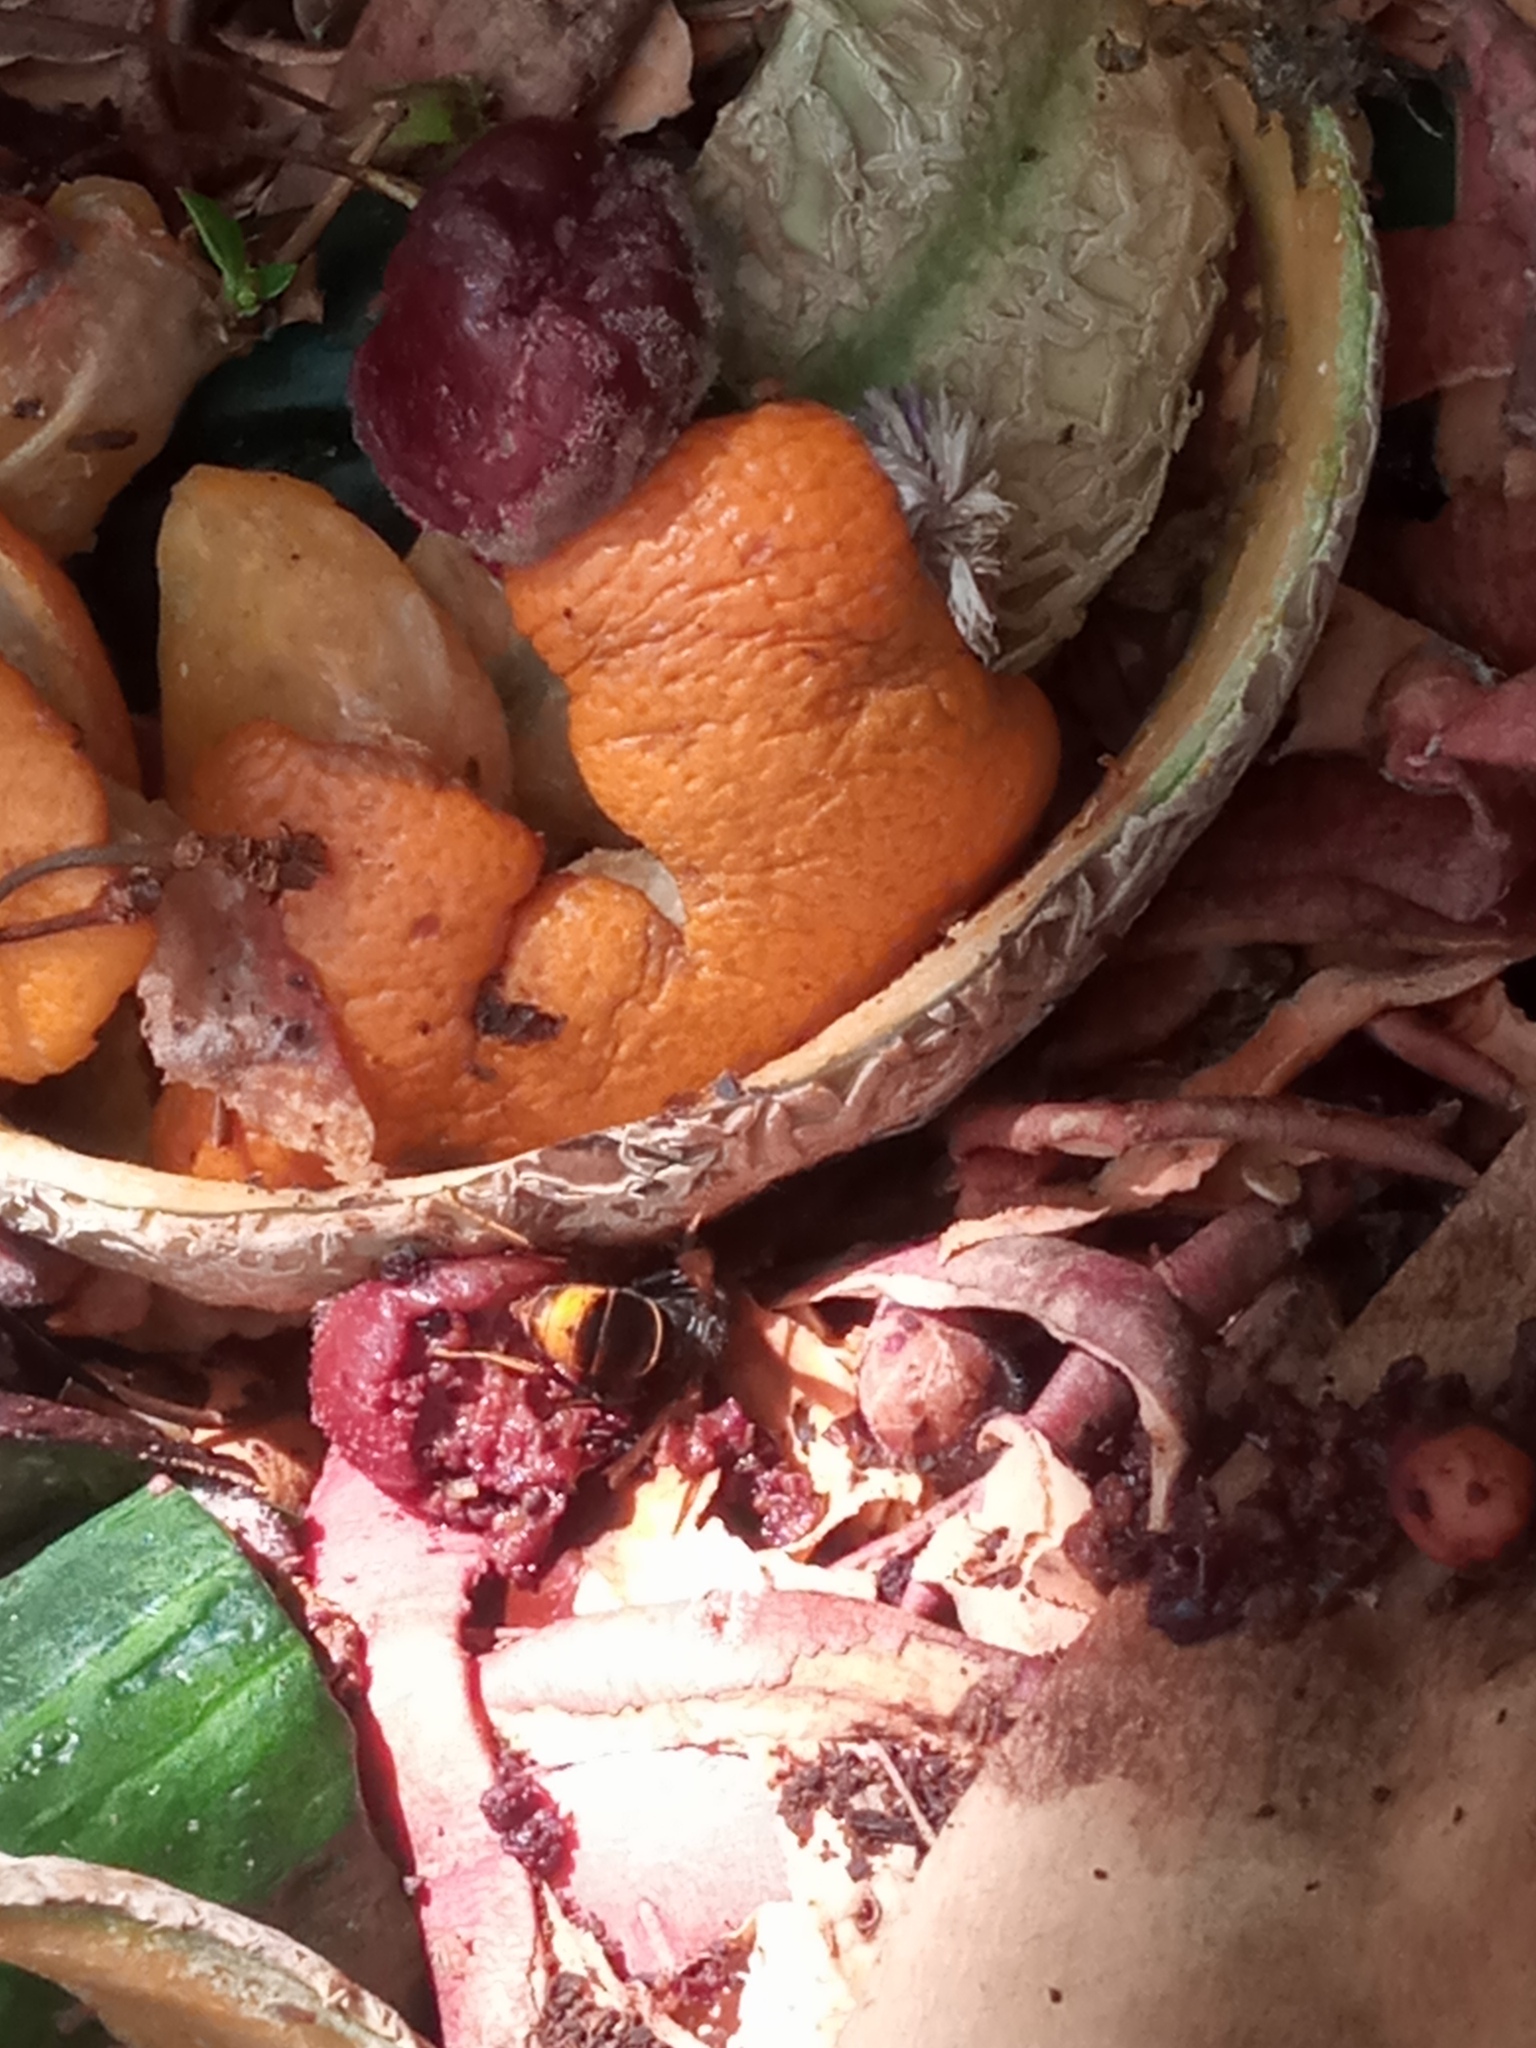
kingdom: Animalia
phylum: Arthropoda
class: Insecta
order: Hymenoptera
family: Vespidae
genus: Vespa
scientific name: Vespa velutina
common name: Asian hornet
